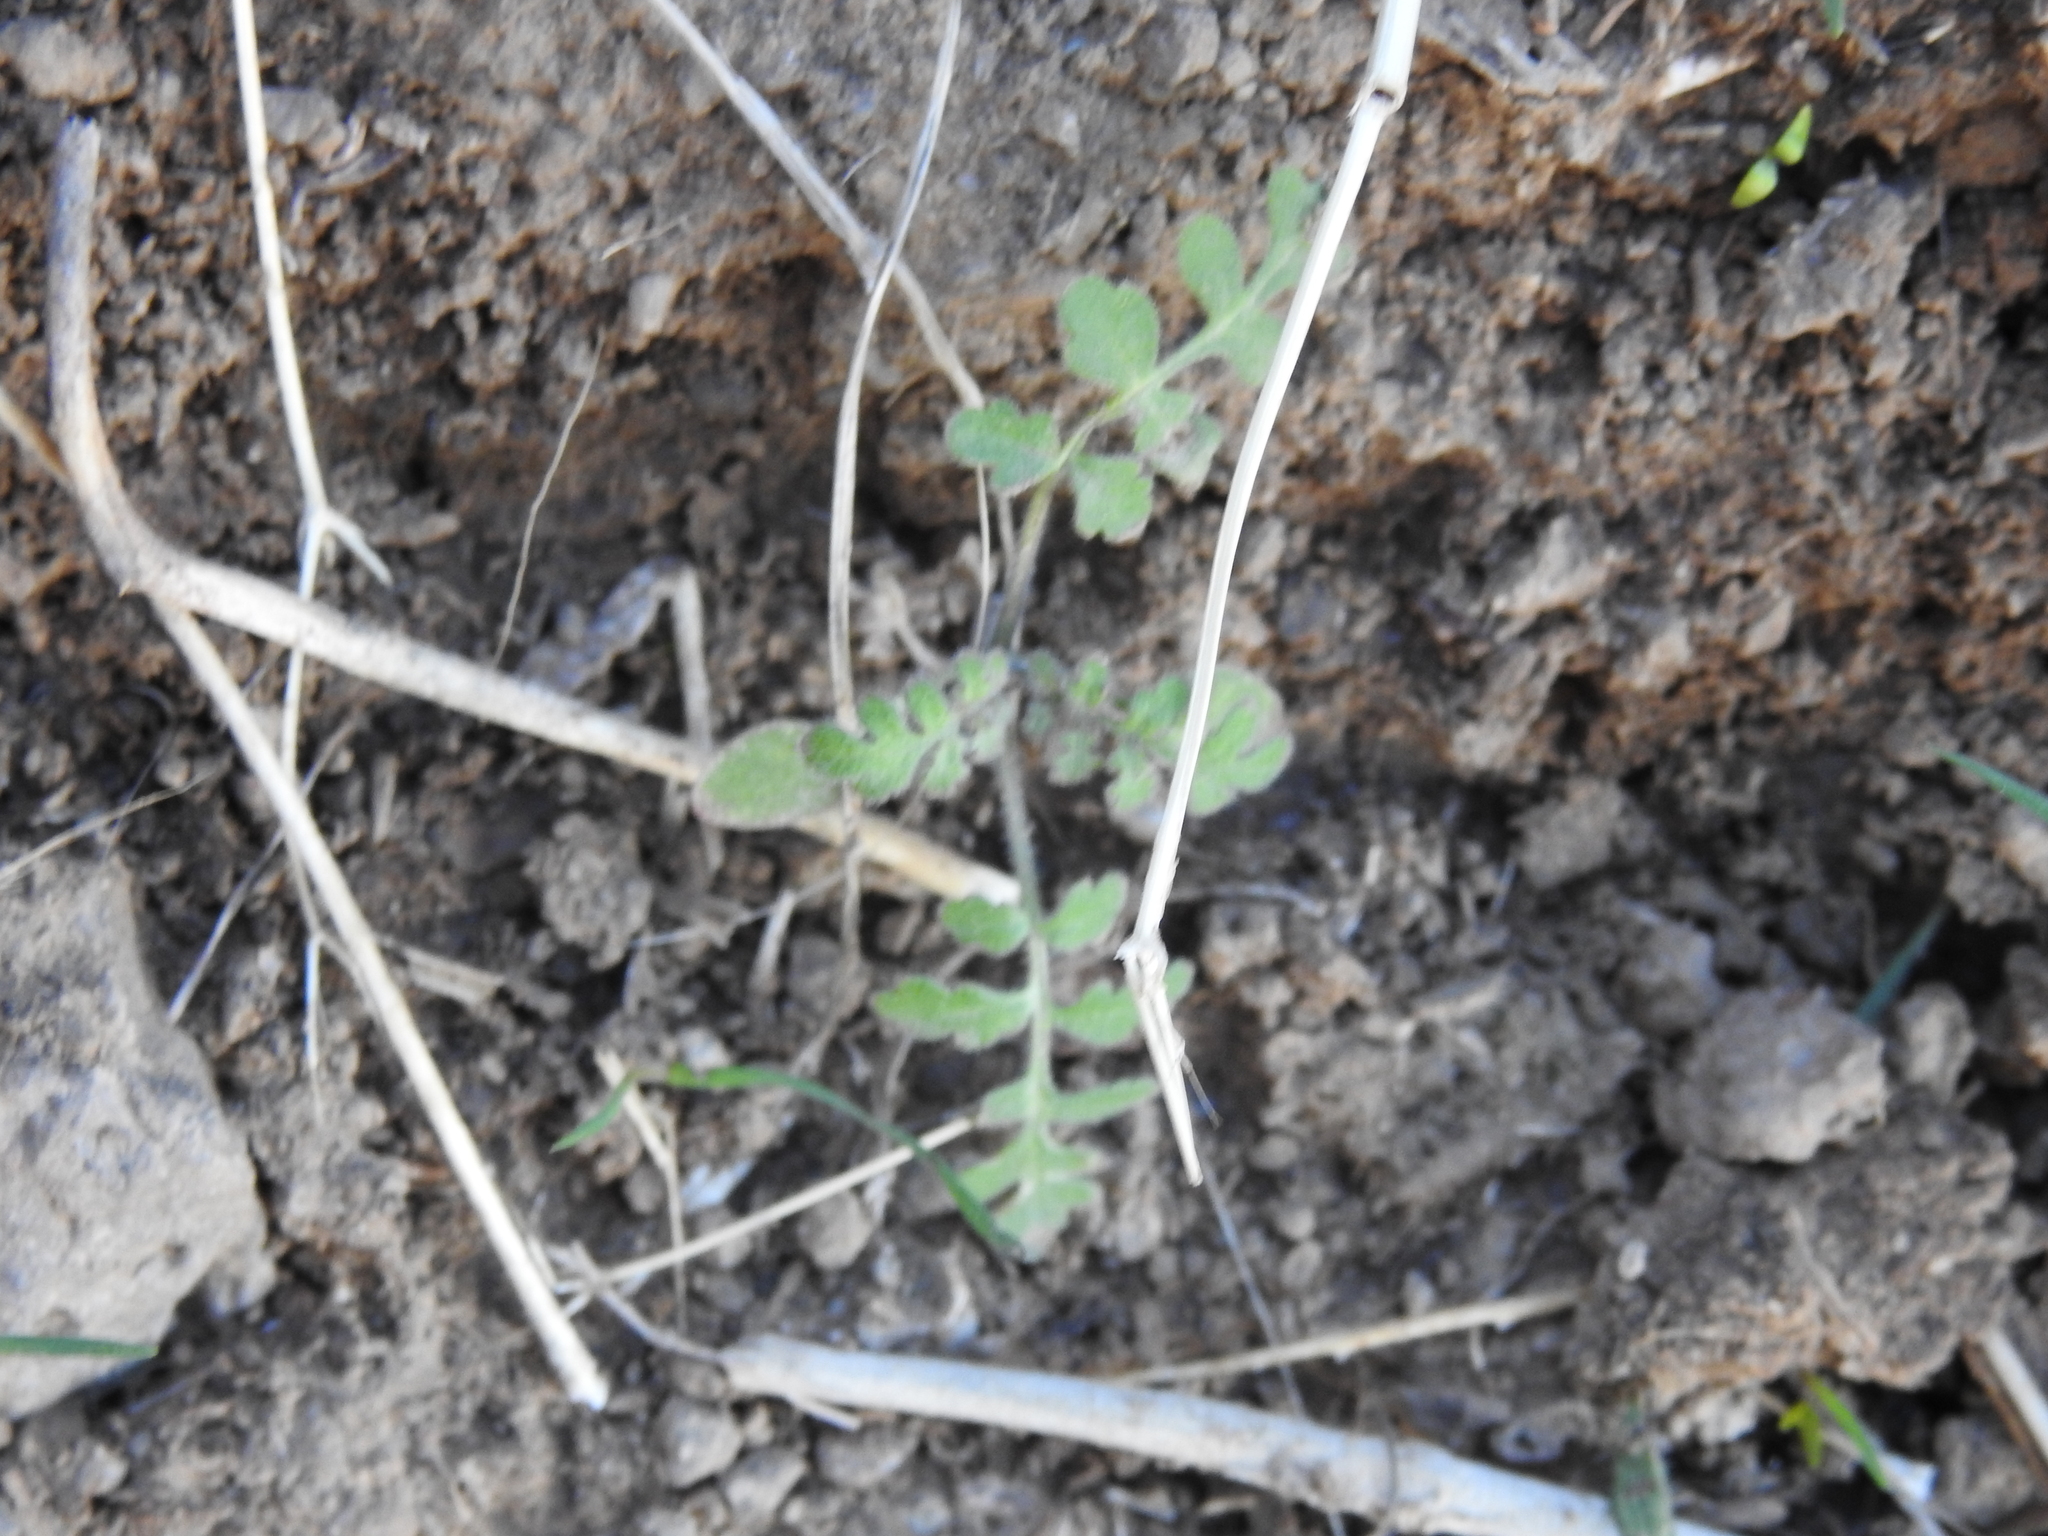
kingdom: Plantae
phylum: Tracheophyta
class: Magnoliopsida
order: Boraginales
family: Hydrophyllaceae
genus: Phacelia
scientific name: Phacelia distans
